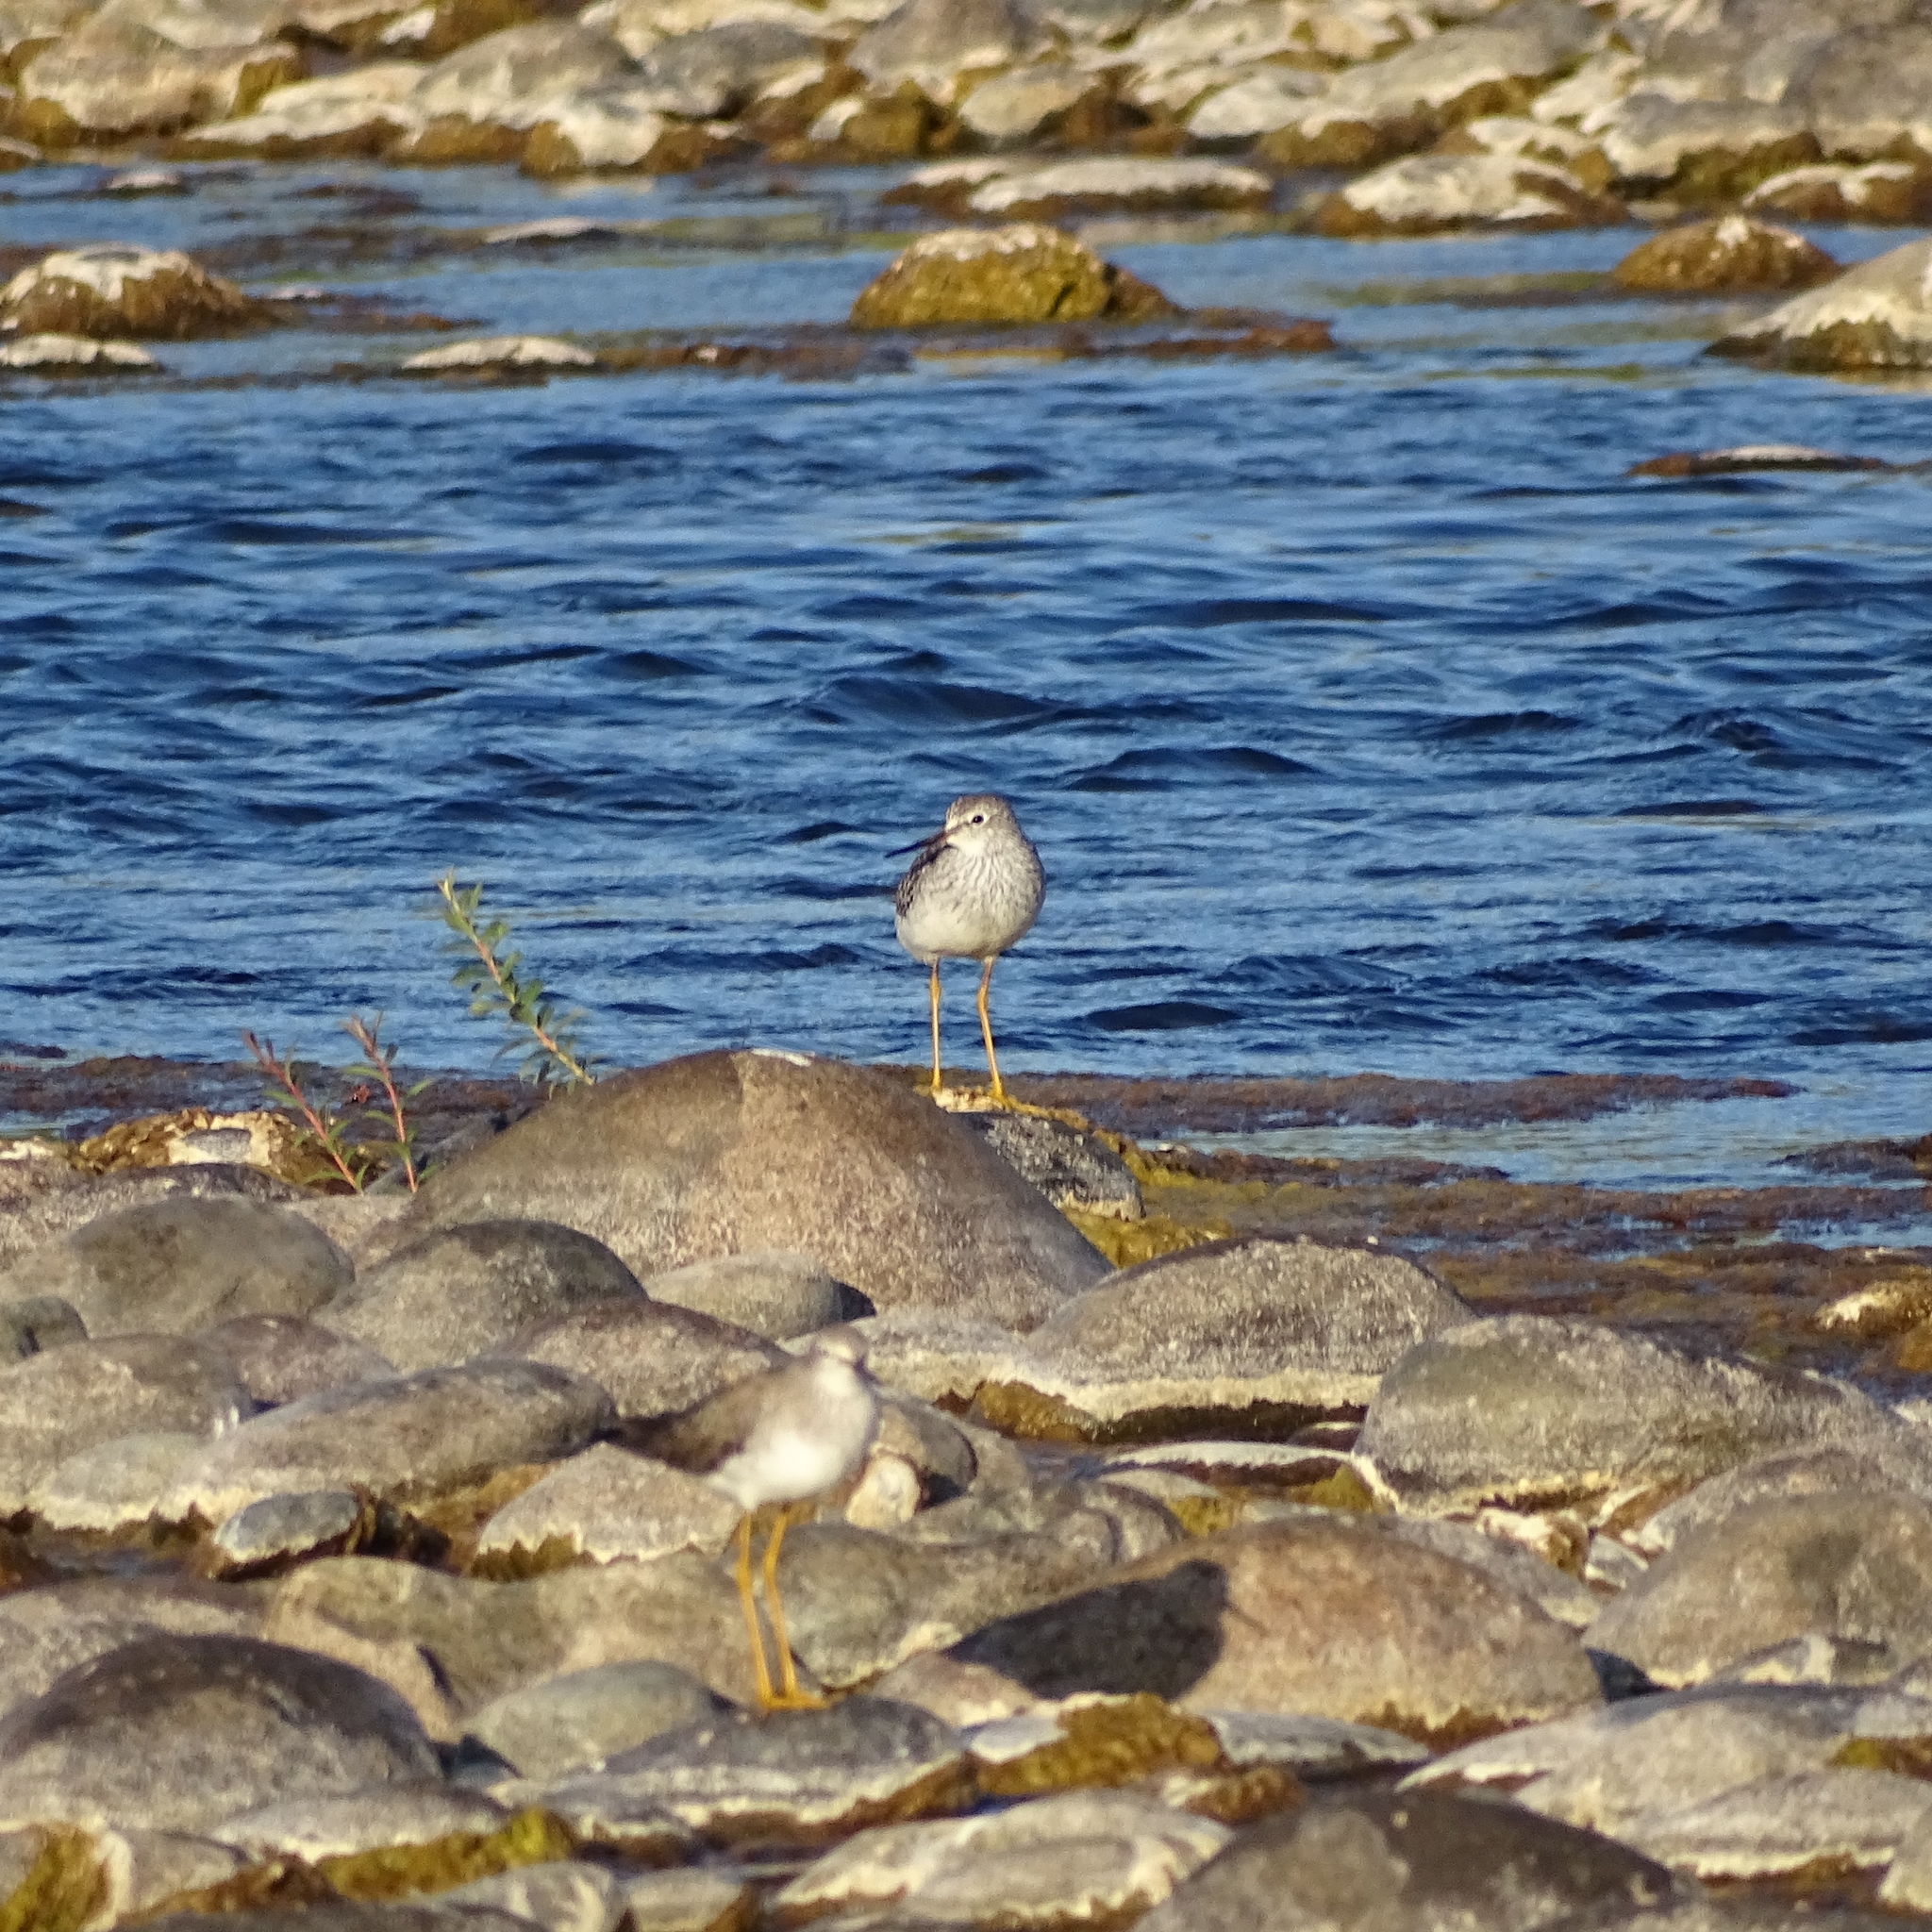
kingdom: Animalia
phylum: Chordata
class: Aves
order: Charadriiformes
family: Scolopacidae
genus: Tringa
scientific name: Tringa melanoleuca
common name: Greater yellowlegs
